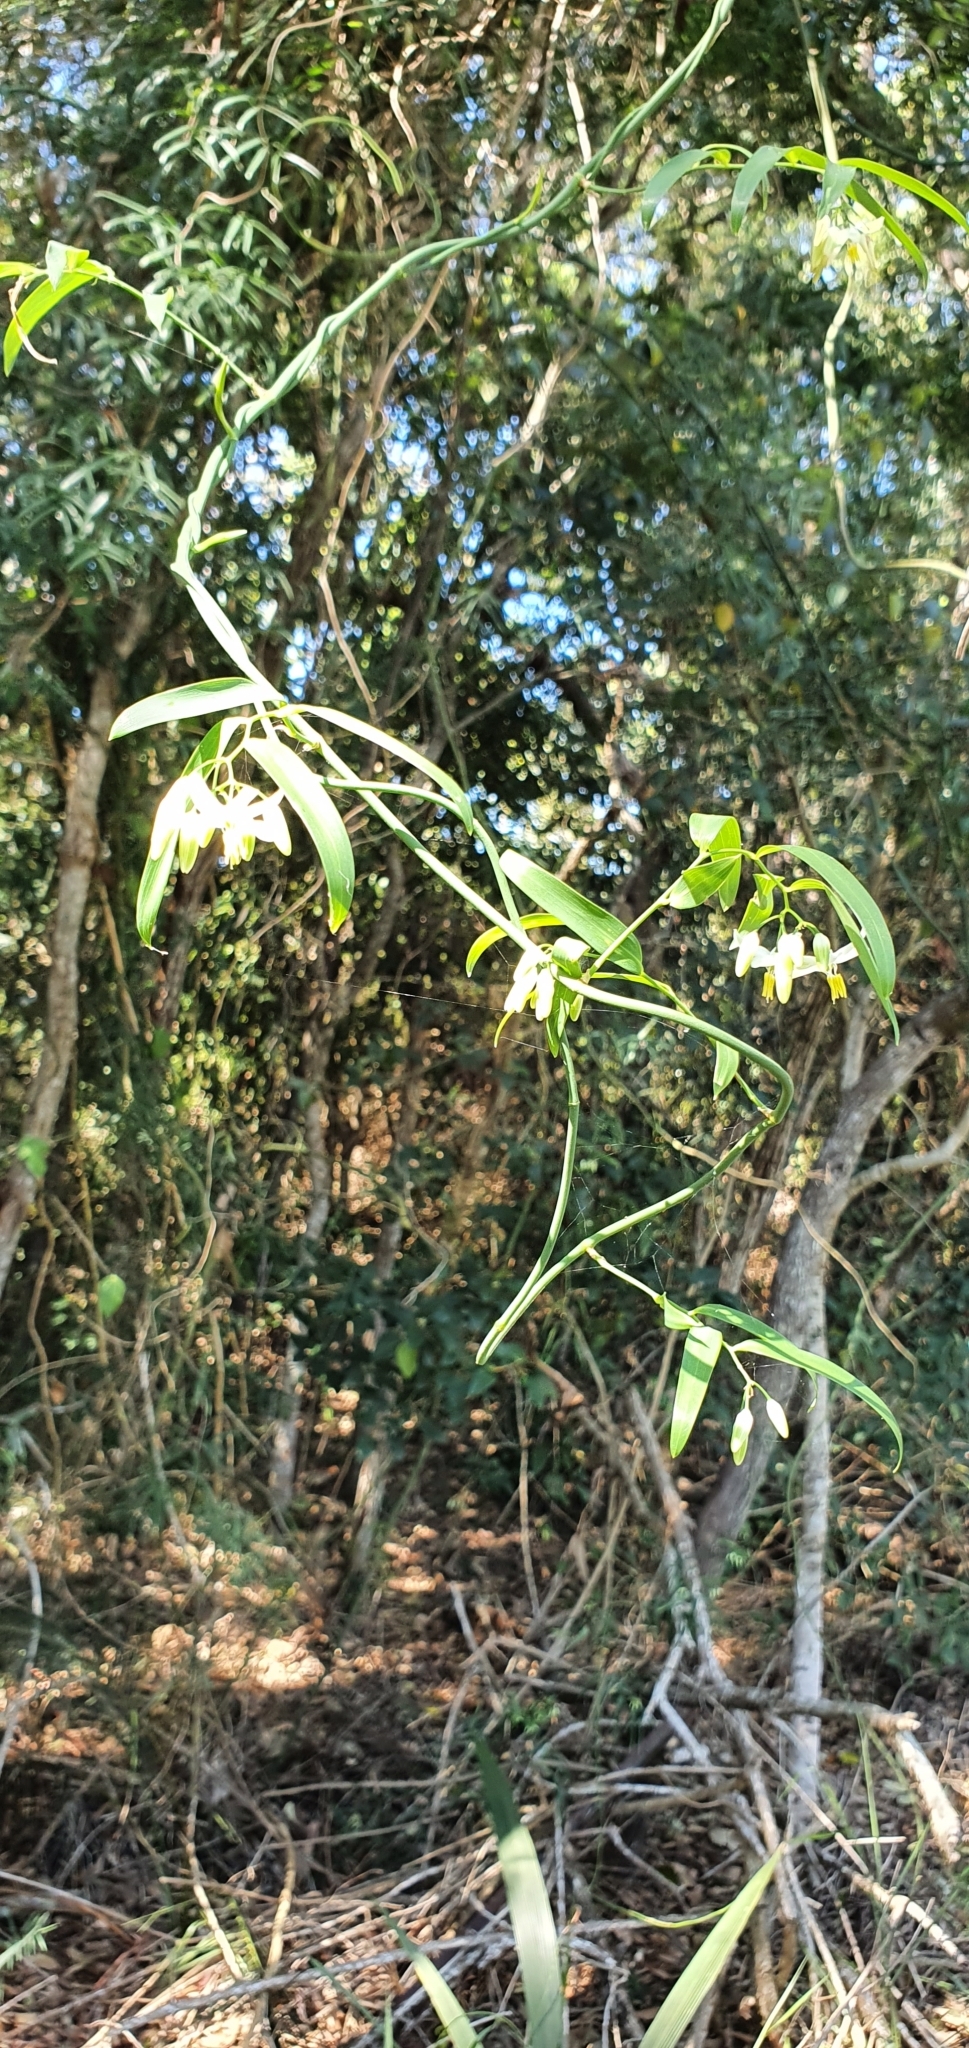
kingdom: Plantae
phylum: Tracheophyta
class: Liliopsida
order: Asparagales
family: Asphodelaceae
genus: Geitonoplesium
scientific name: Geitonoplesium cymosum
